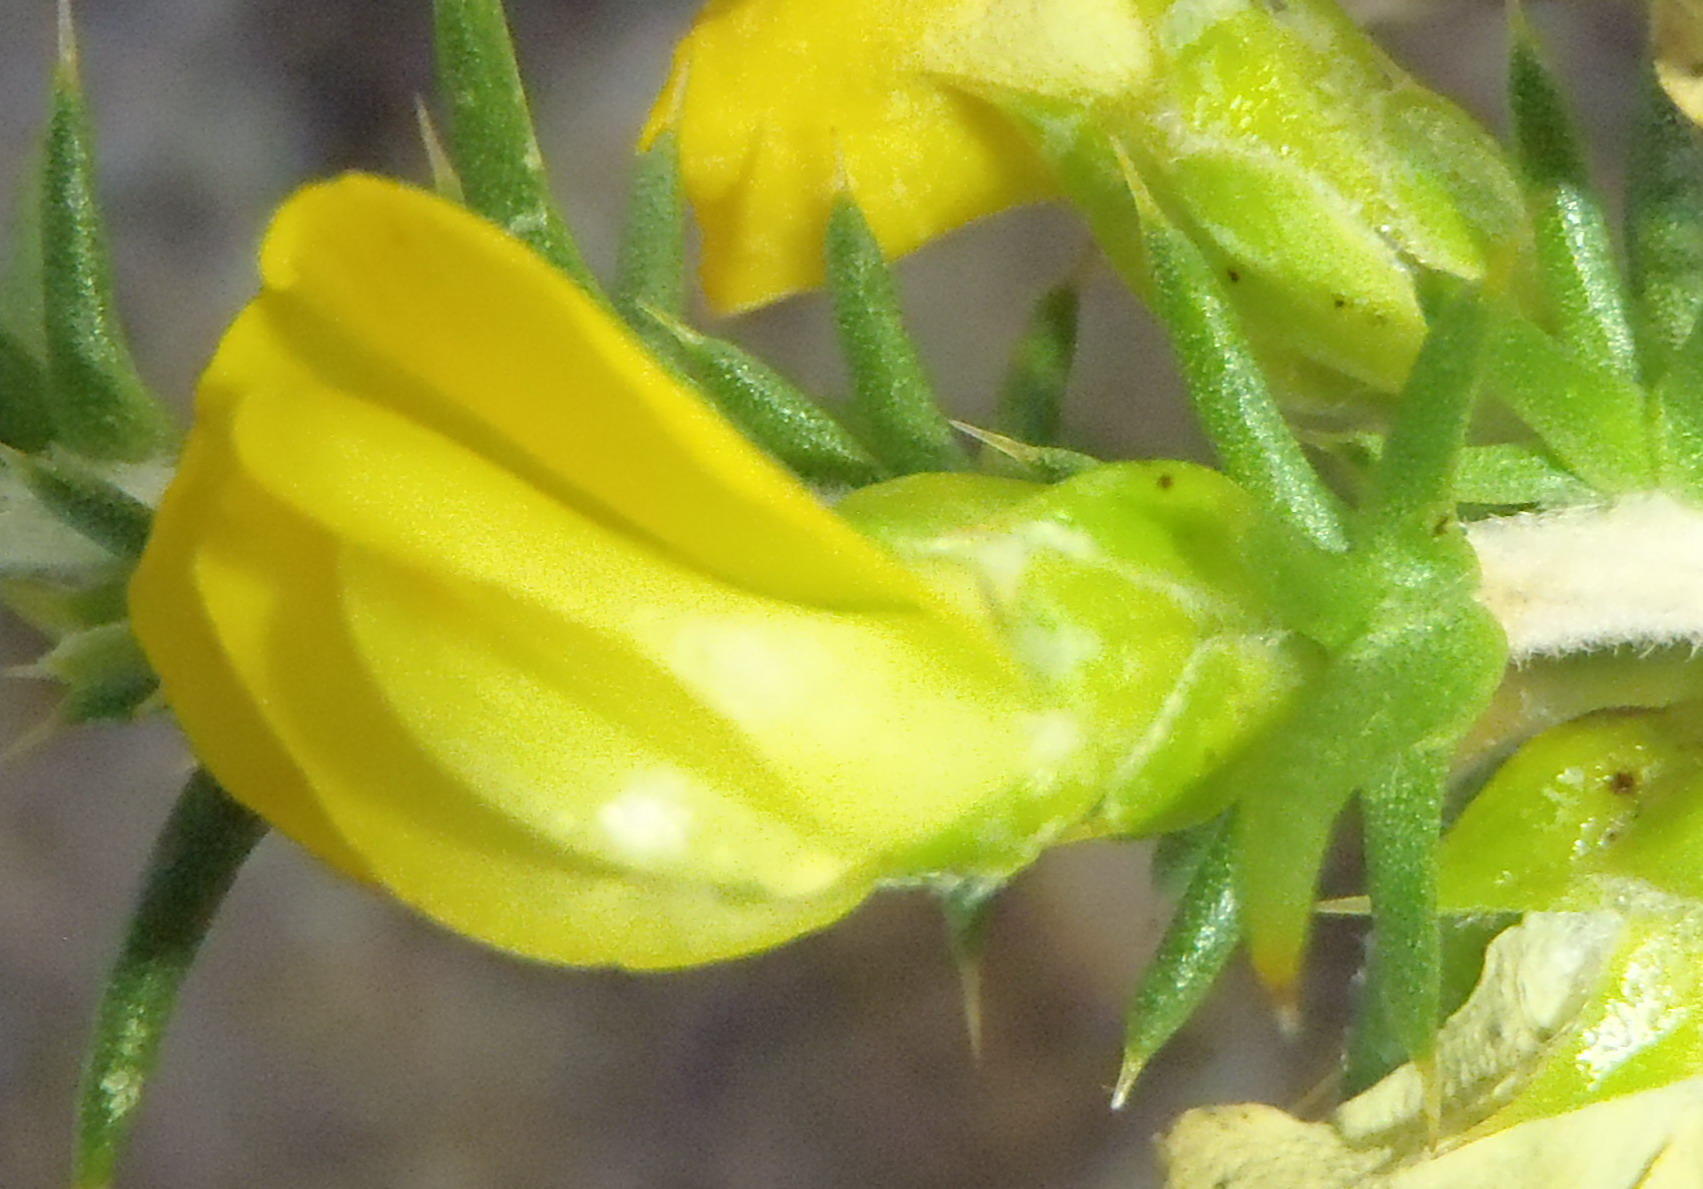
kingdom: Plantae
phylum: Tracheophyta
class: Magnoliopsida
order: Fabales
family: Fabaceae
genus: Aspalathus
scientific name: Aspalathus collina
